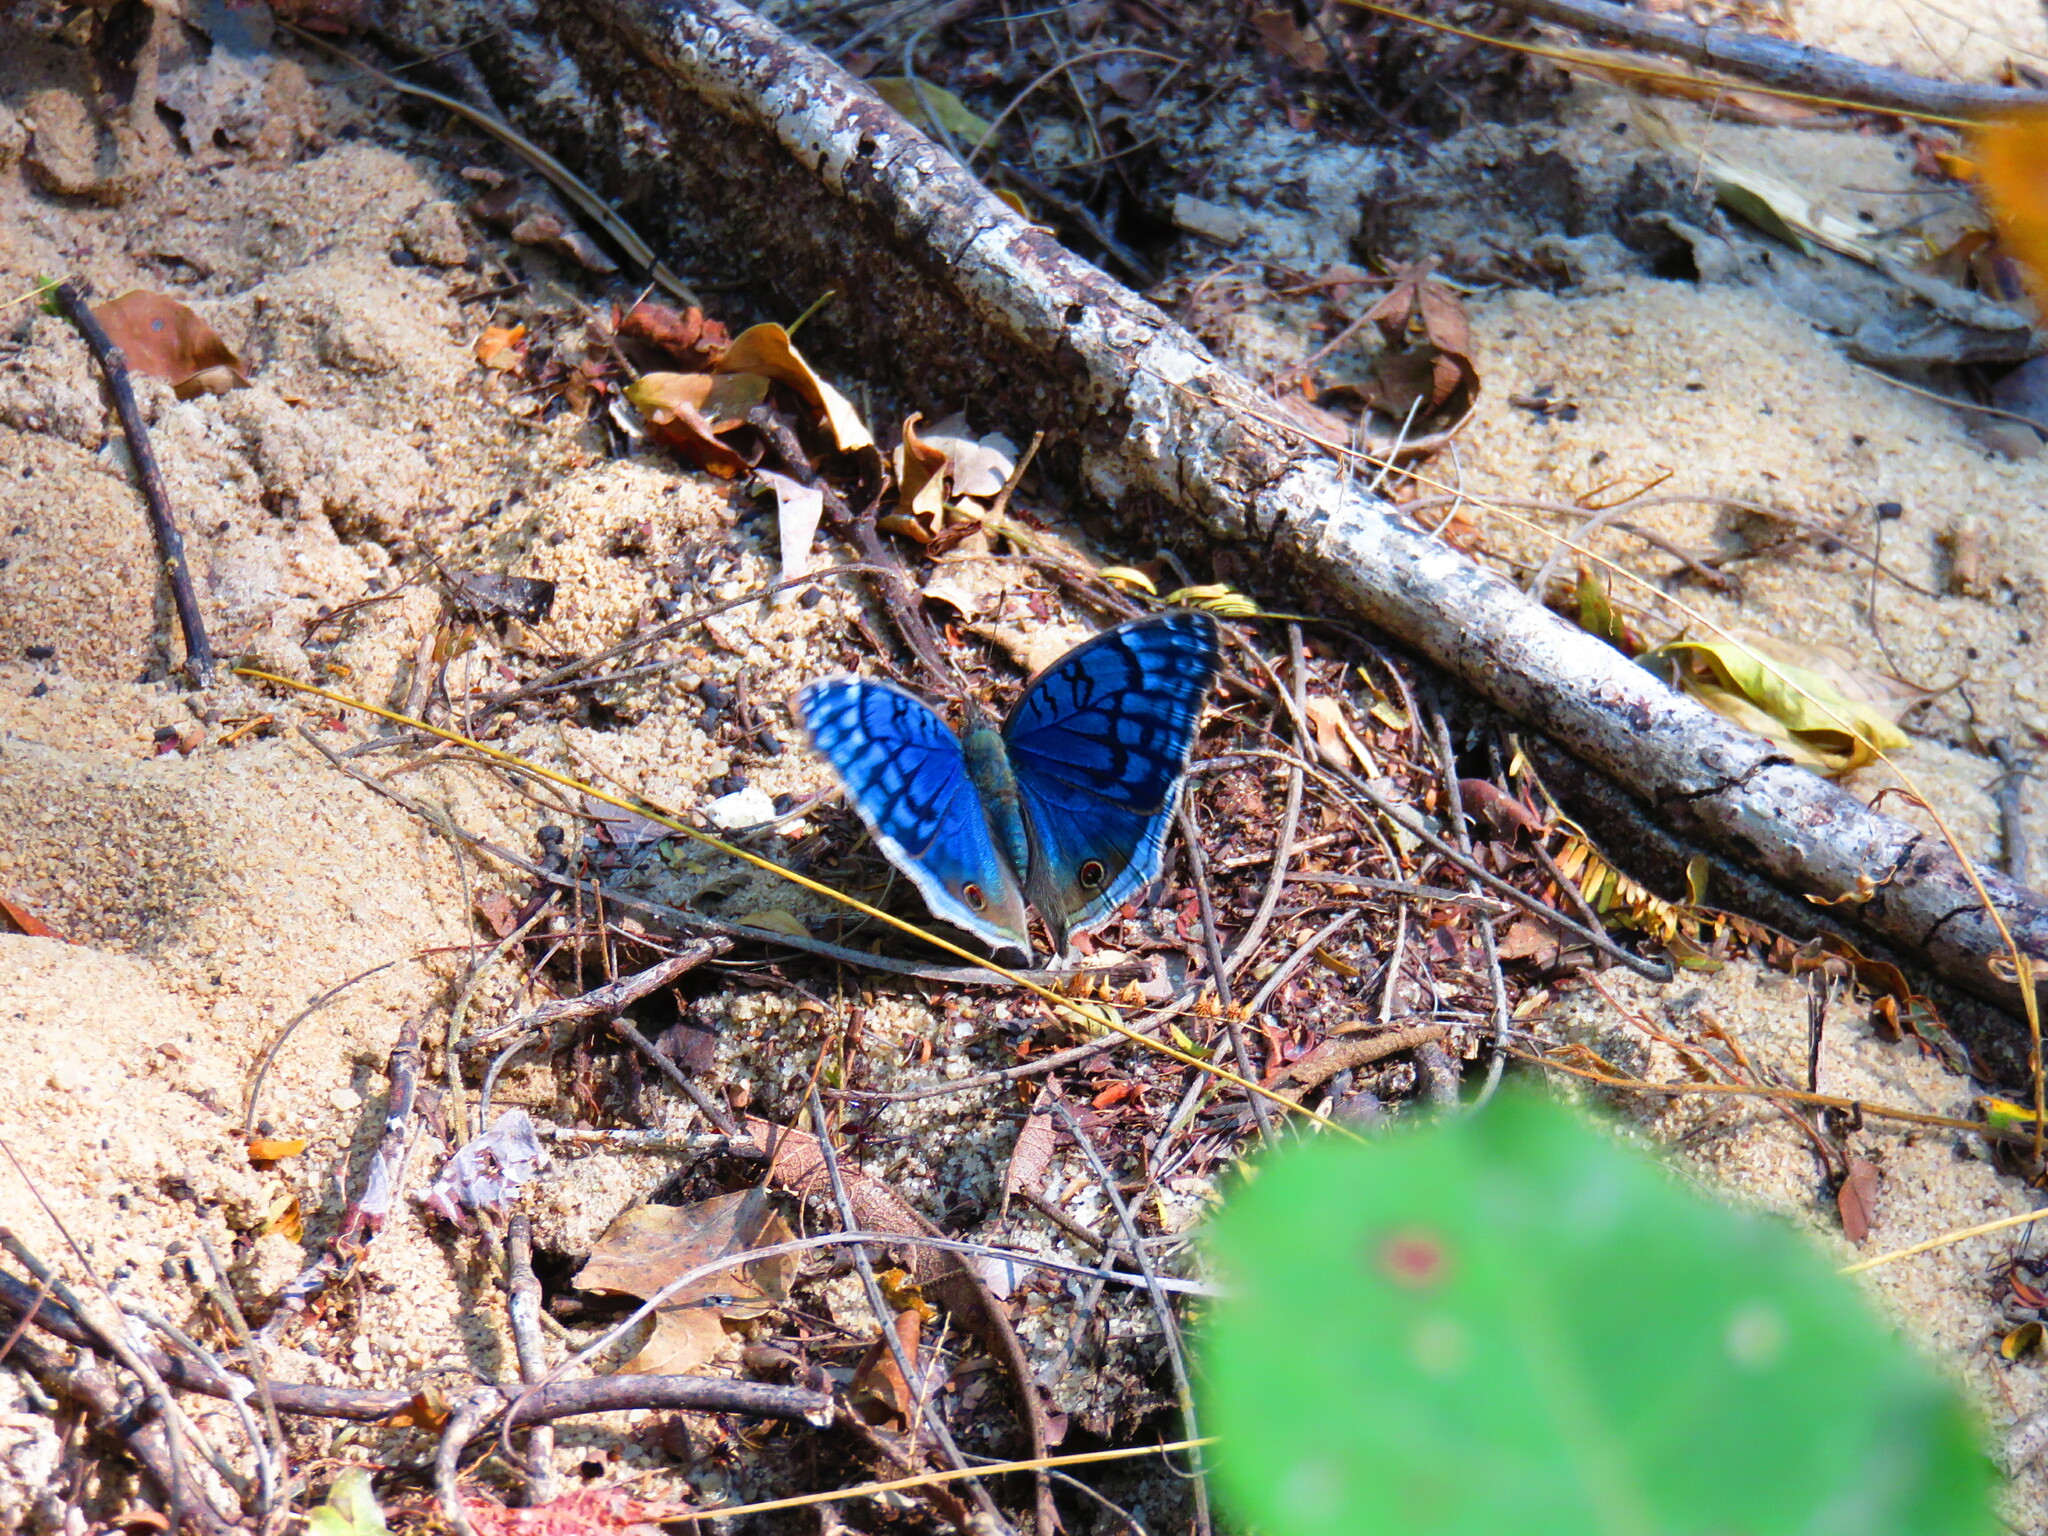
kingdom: Animalia
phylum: Arthropoda
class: Insecta
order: Lepidoptera
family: Nymphalidae
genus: Junonia
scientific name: Junonia rhadama
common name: Royal blue pansy
